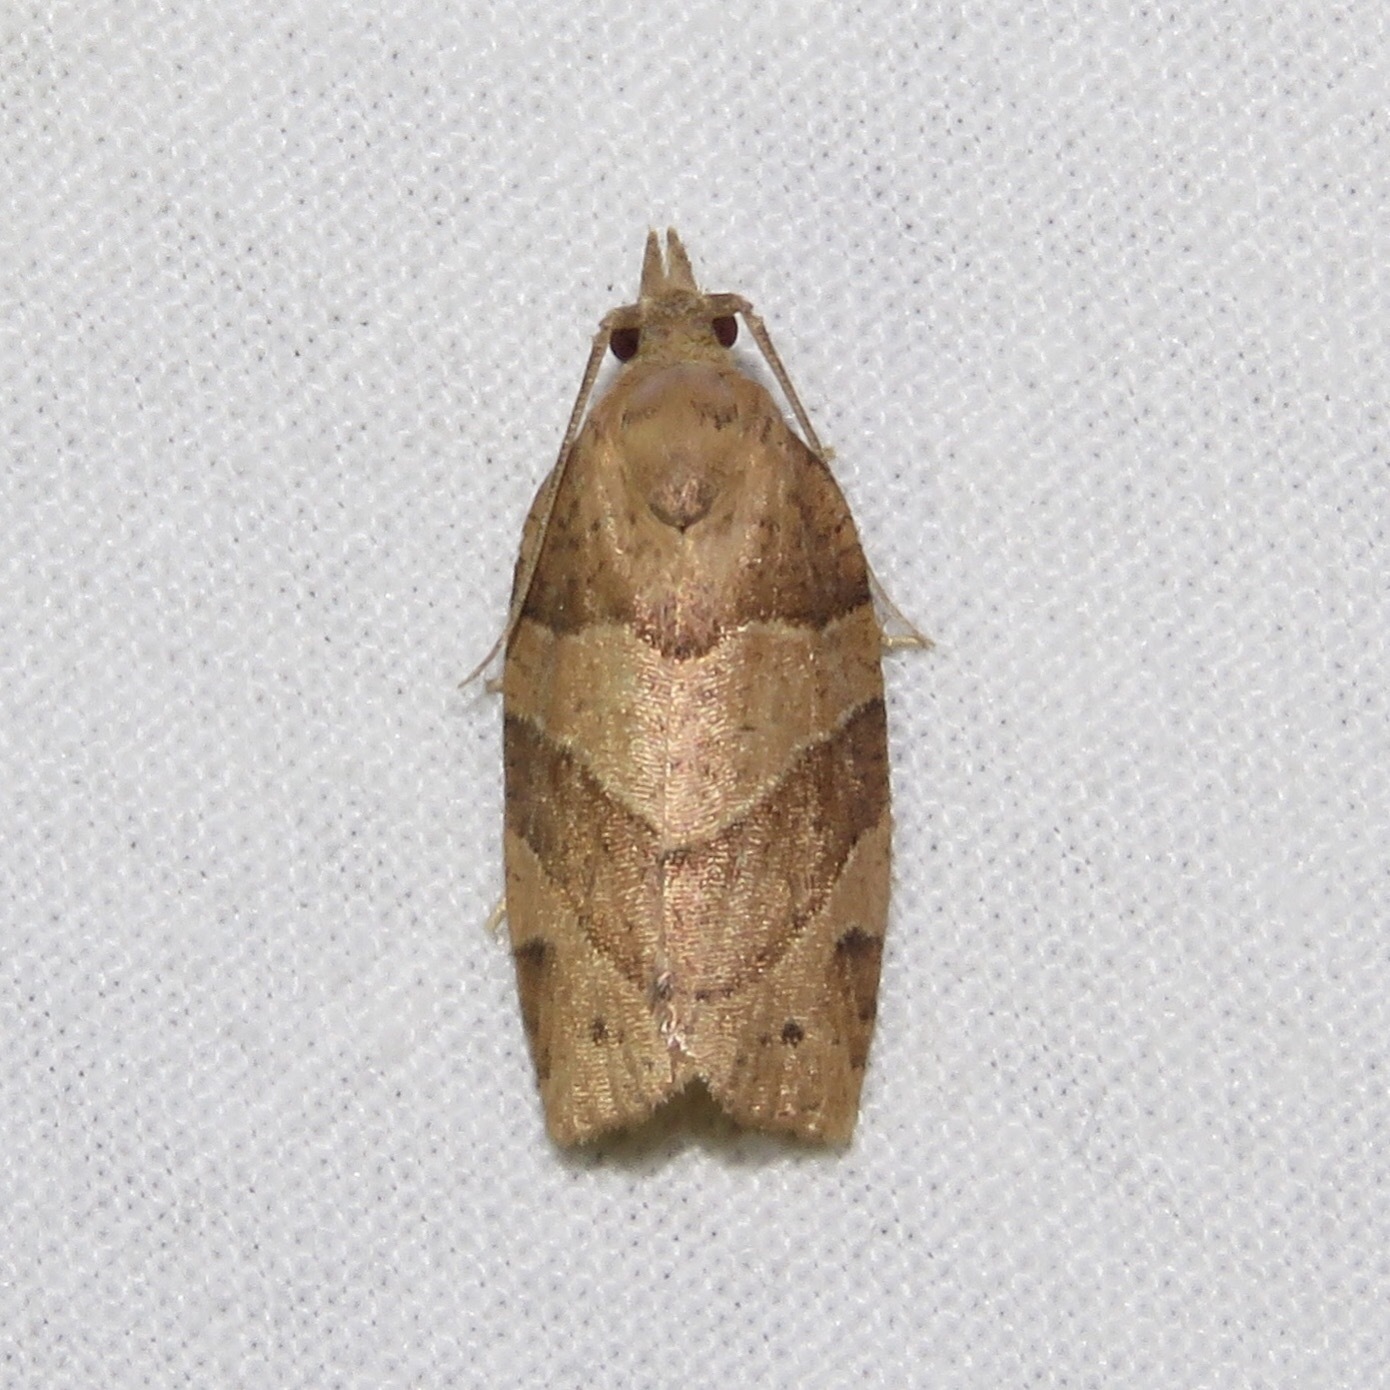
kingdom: Animalia
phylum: Arthropoda
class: Insecta
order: Lepidoptera
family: Tortricidae
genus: Pandemis
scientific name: Pandemis lamprosana
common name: Woodgrain leafroller moth
